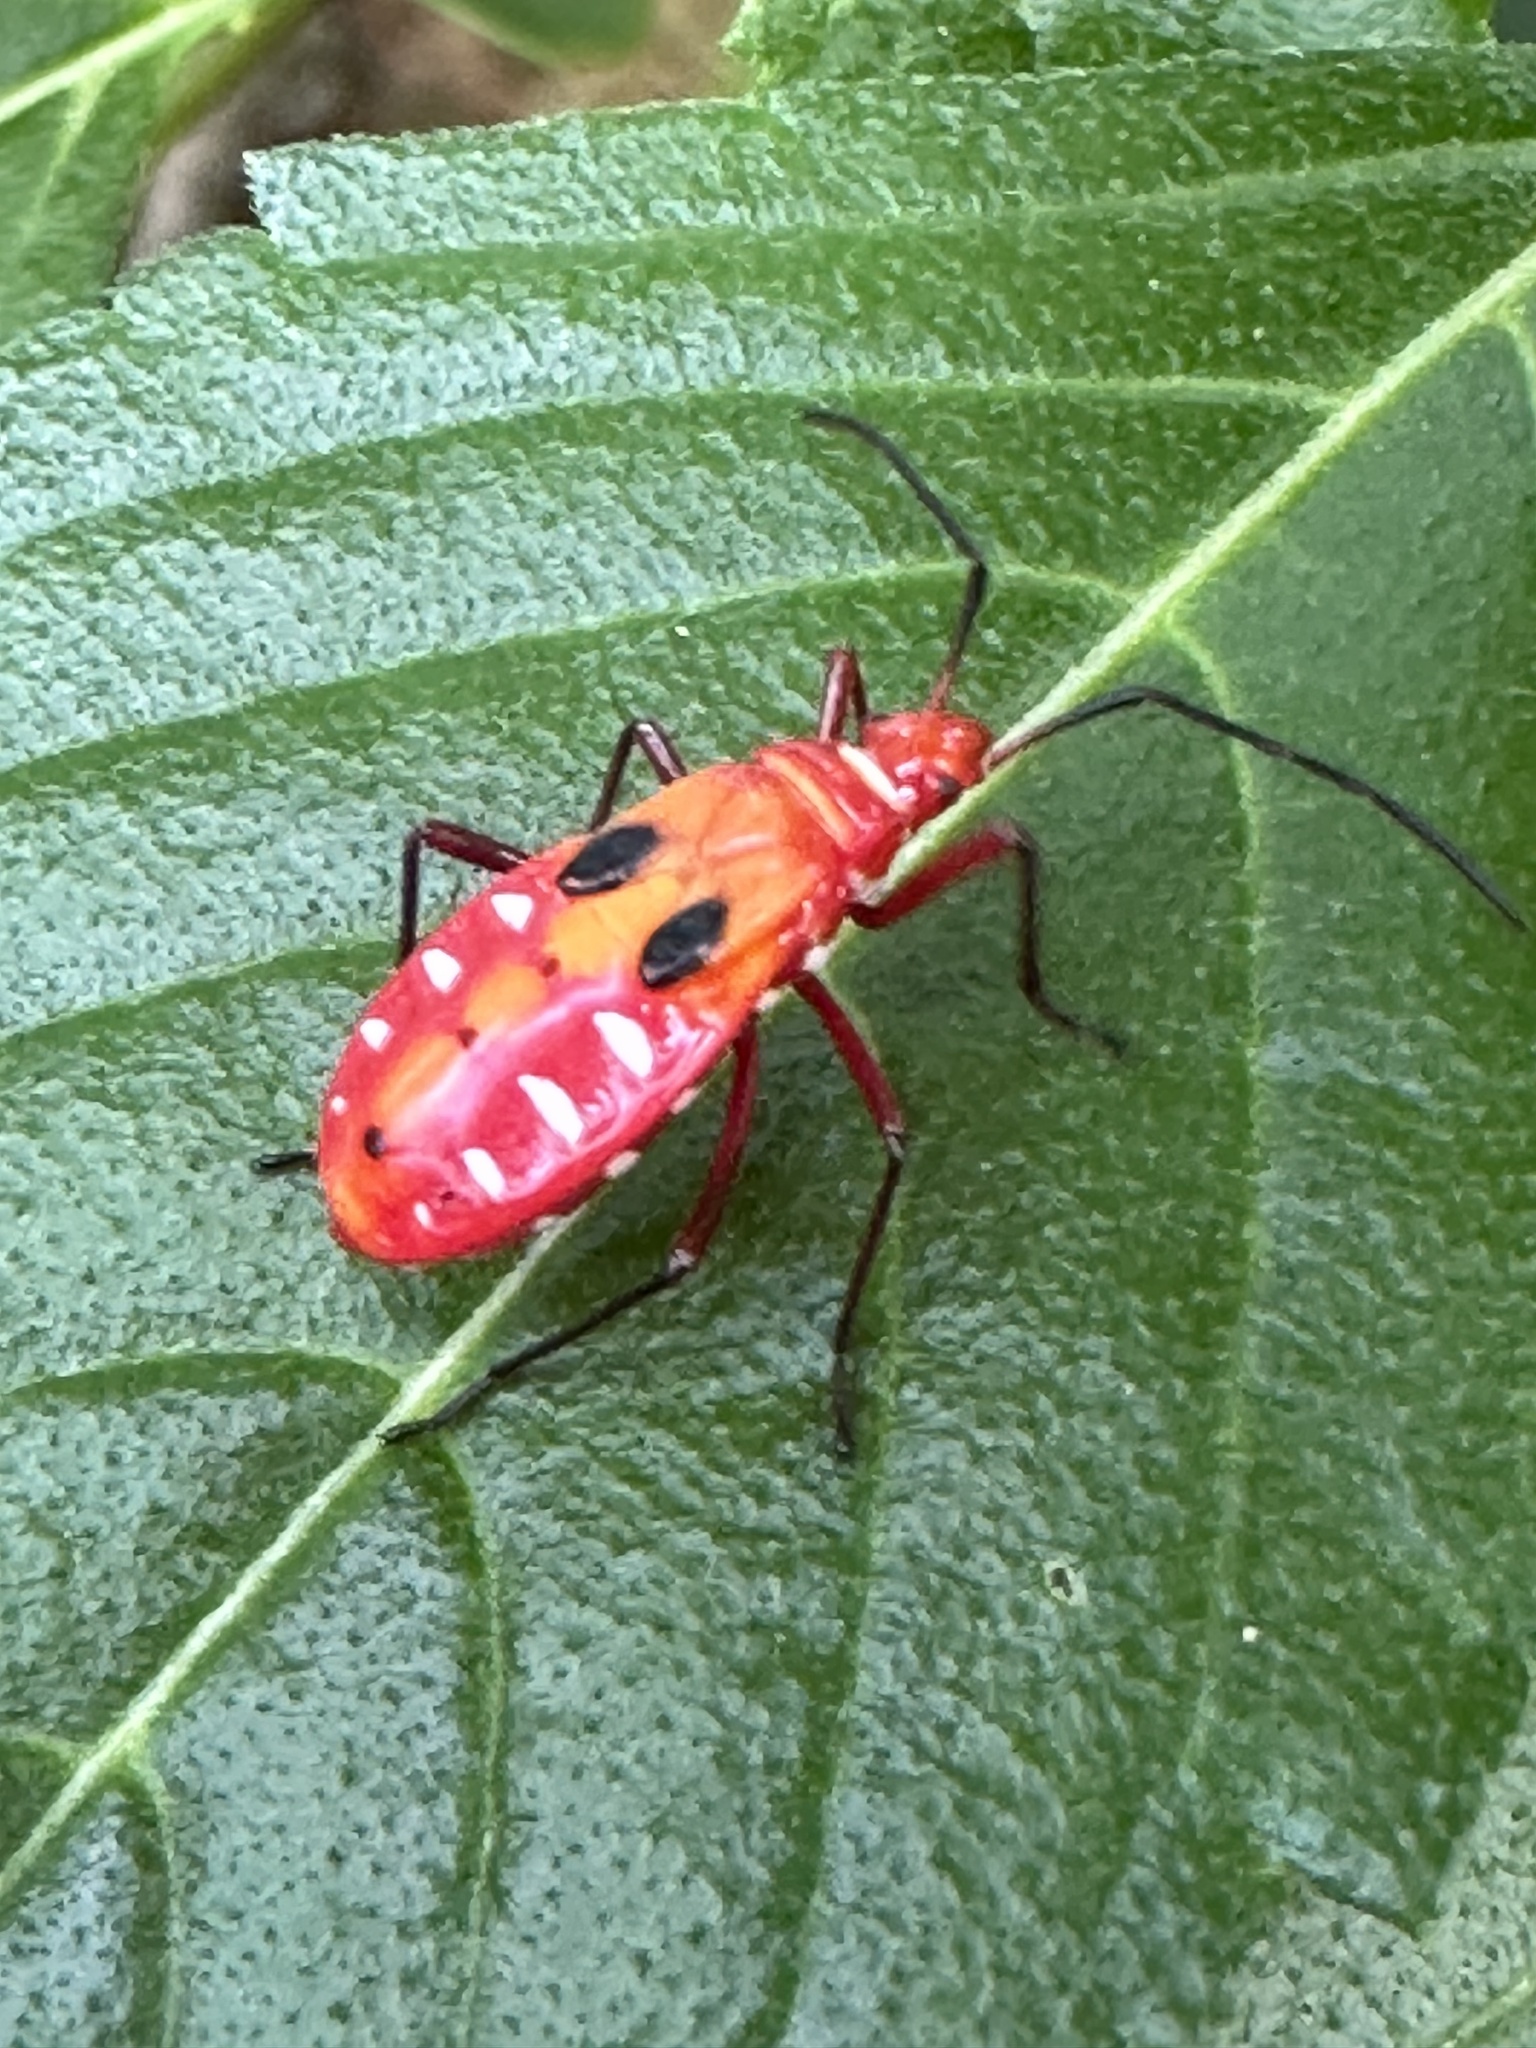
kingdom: Animalia
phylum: Arthropoda
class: Insecta
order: Hemiptera
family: Pyrrhocoridae
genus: Dysdercus
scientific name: Dysdercus cingulatus
